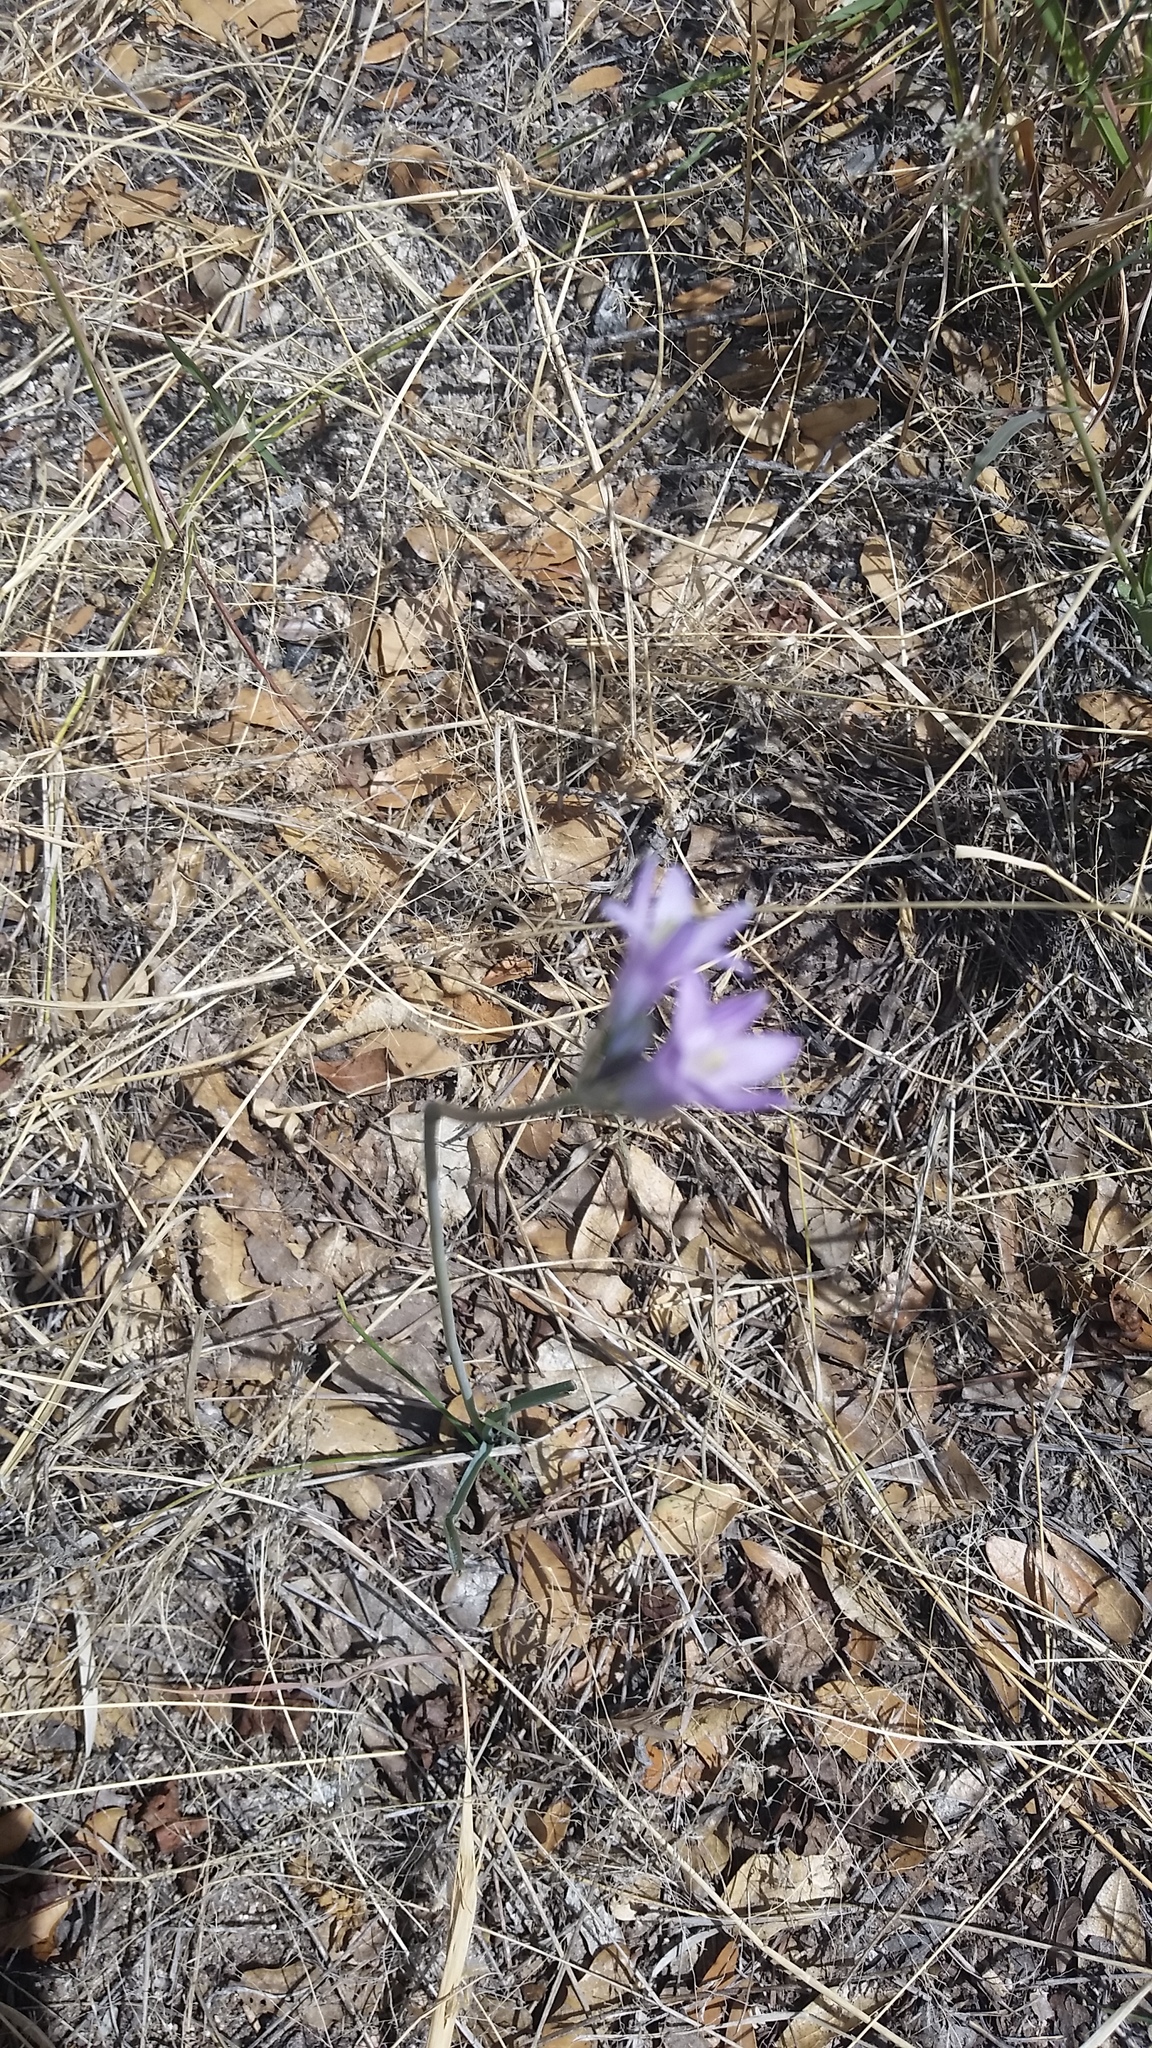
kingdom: Plantae
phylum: Tracheophyta
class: Liliopsida
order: Asparagales
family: Asparagaceae
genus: Dipterostemon
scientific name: Dipterostemon capitatus
